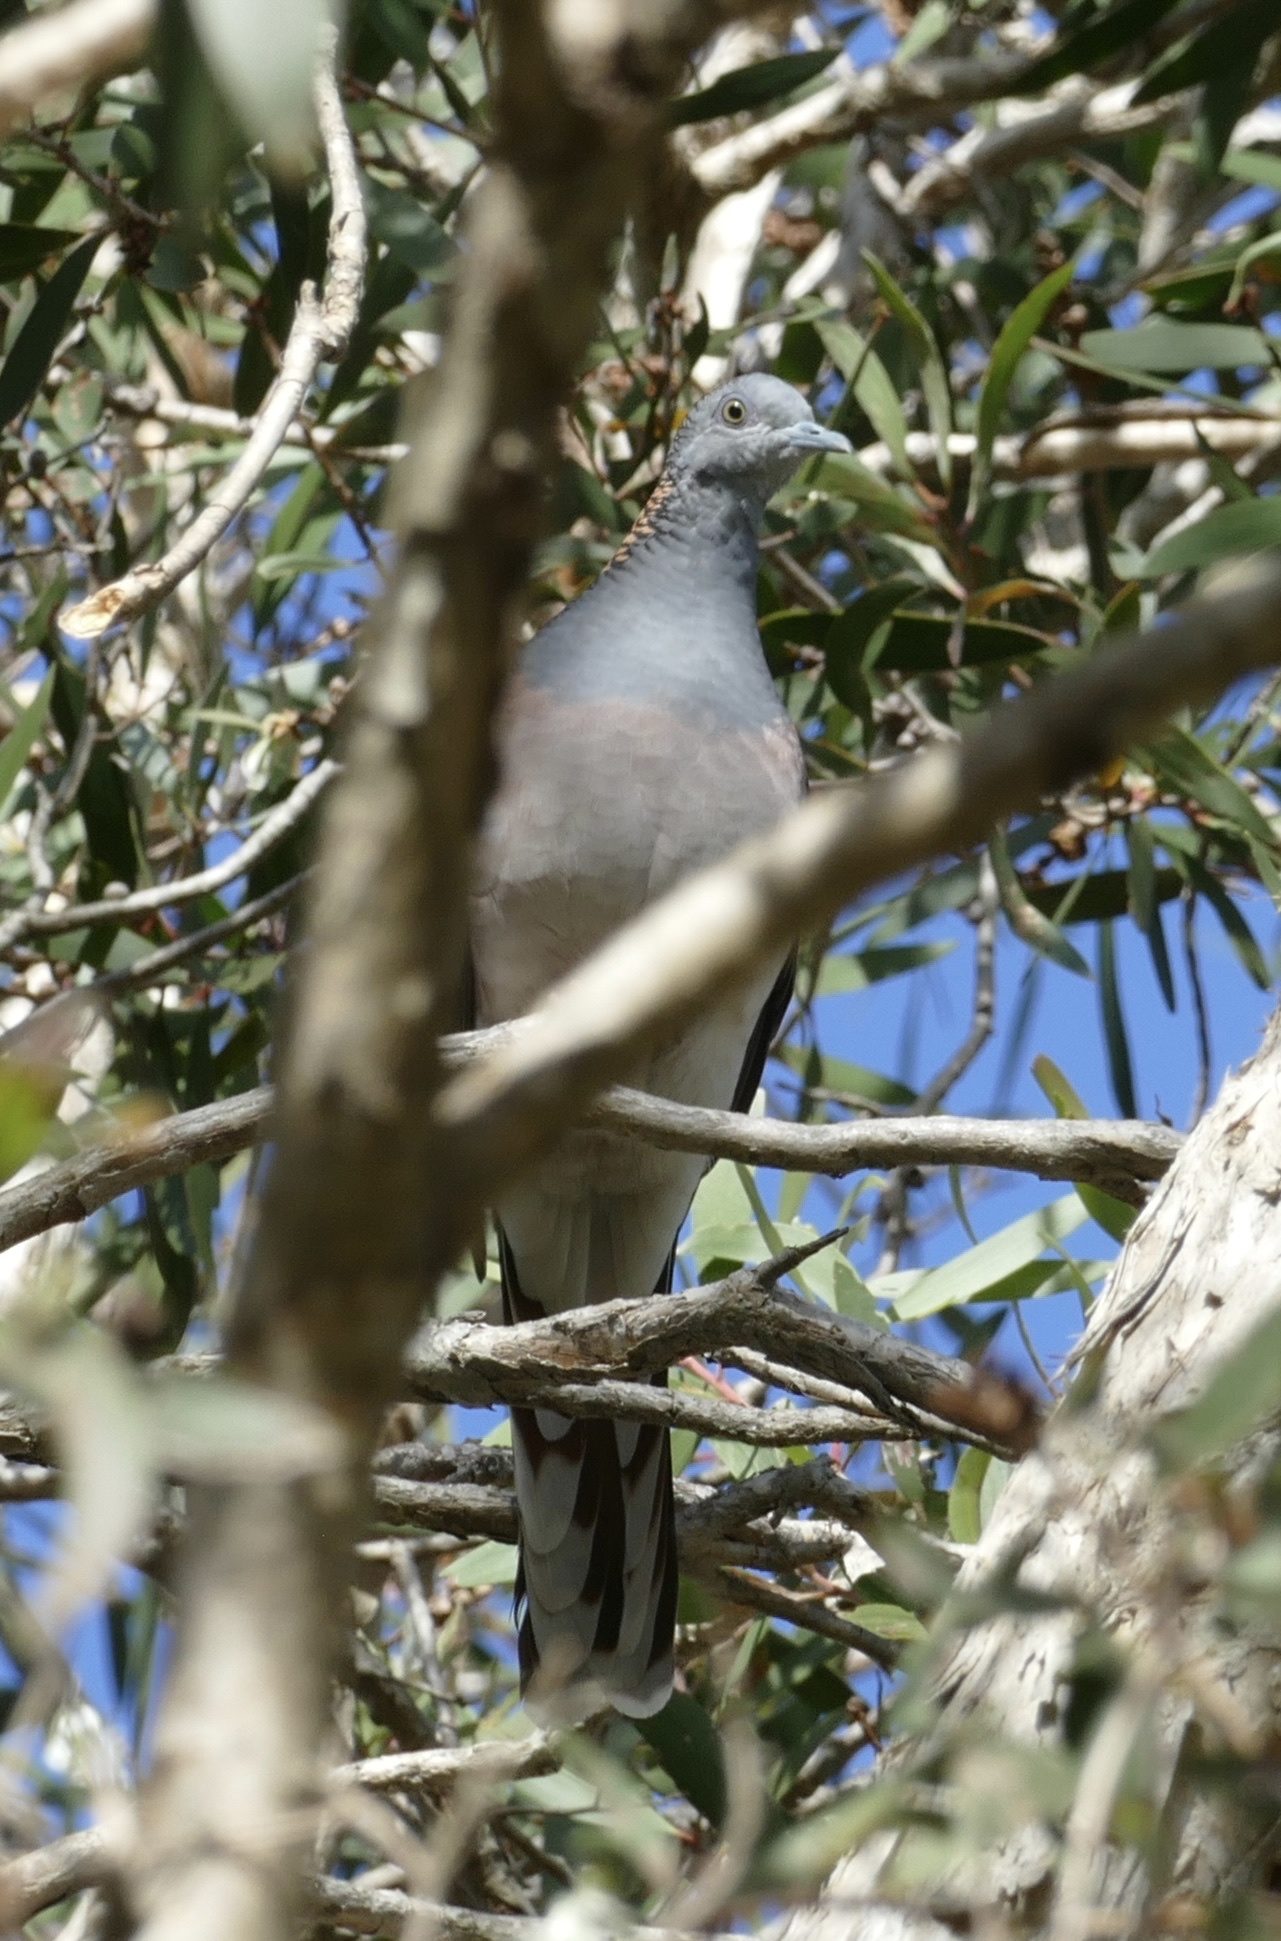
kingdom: Animalia
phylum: Chordata
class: Aves
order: Columbiformes
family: Columbidae
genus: Geopelia
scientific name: Geopelia humeralis
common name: Bar-shouldered dove
